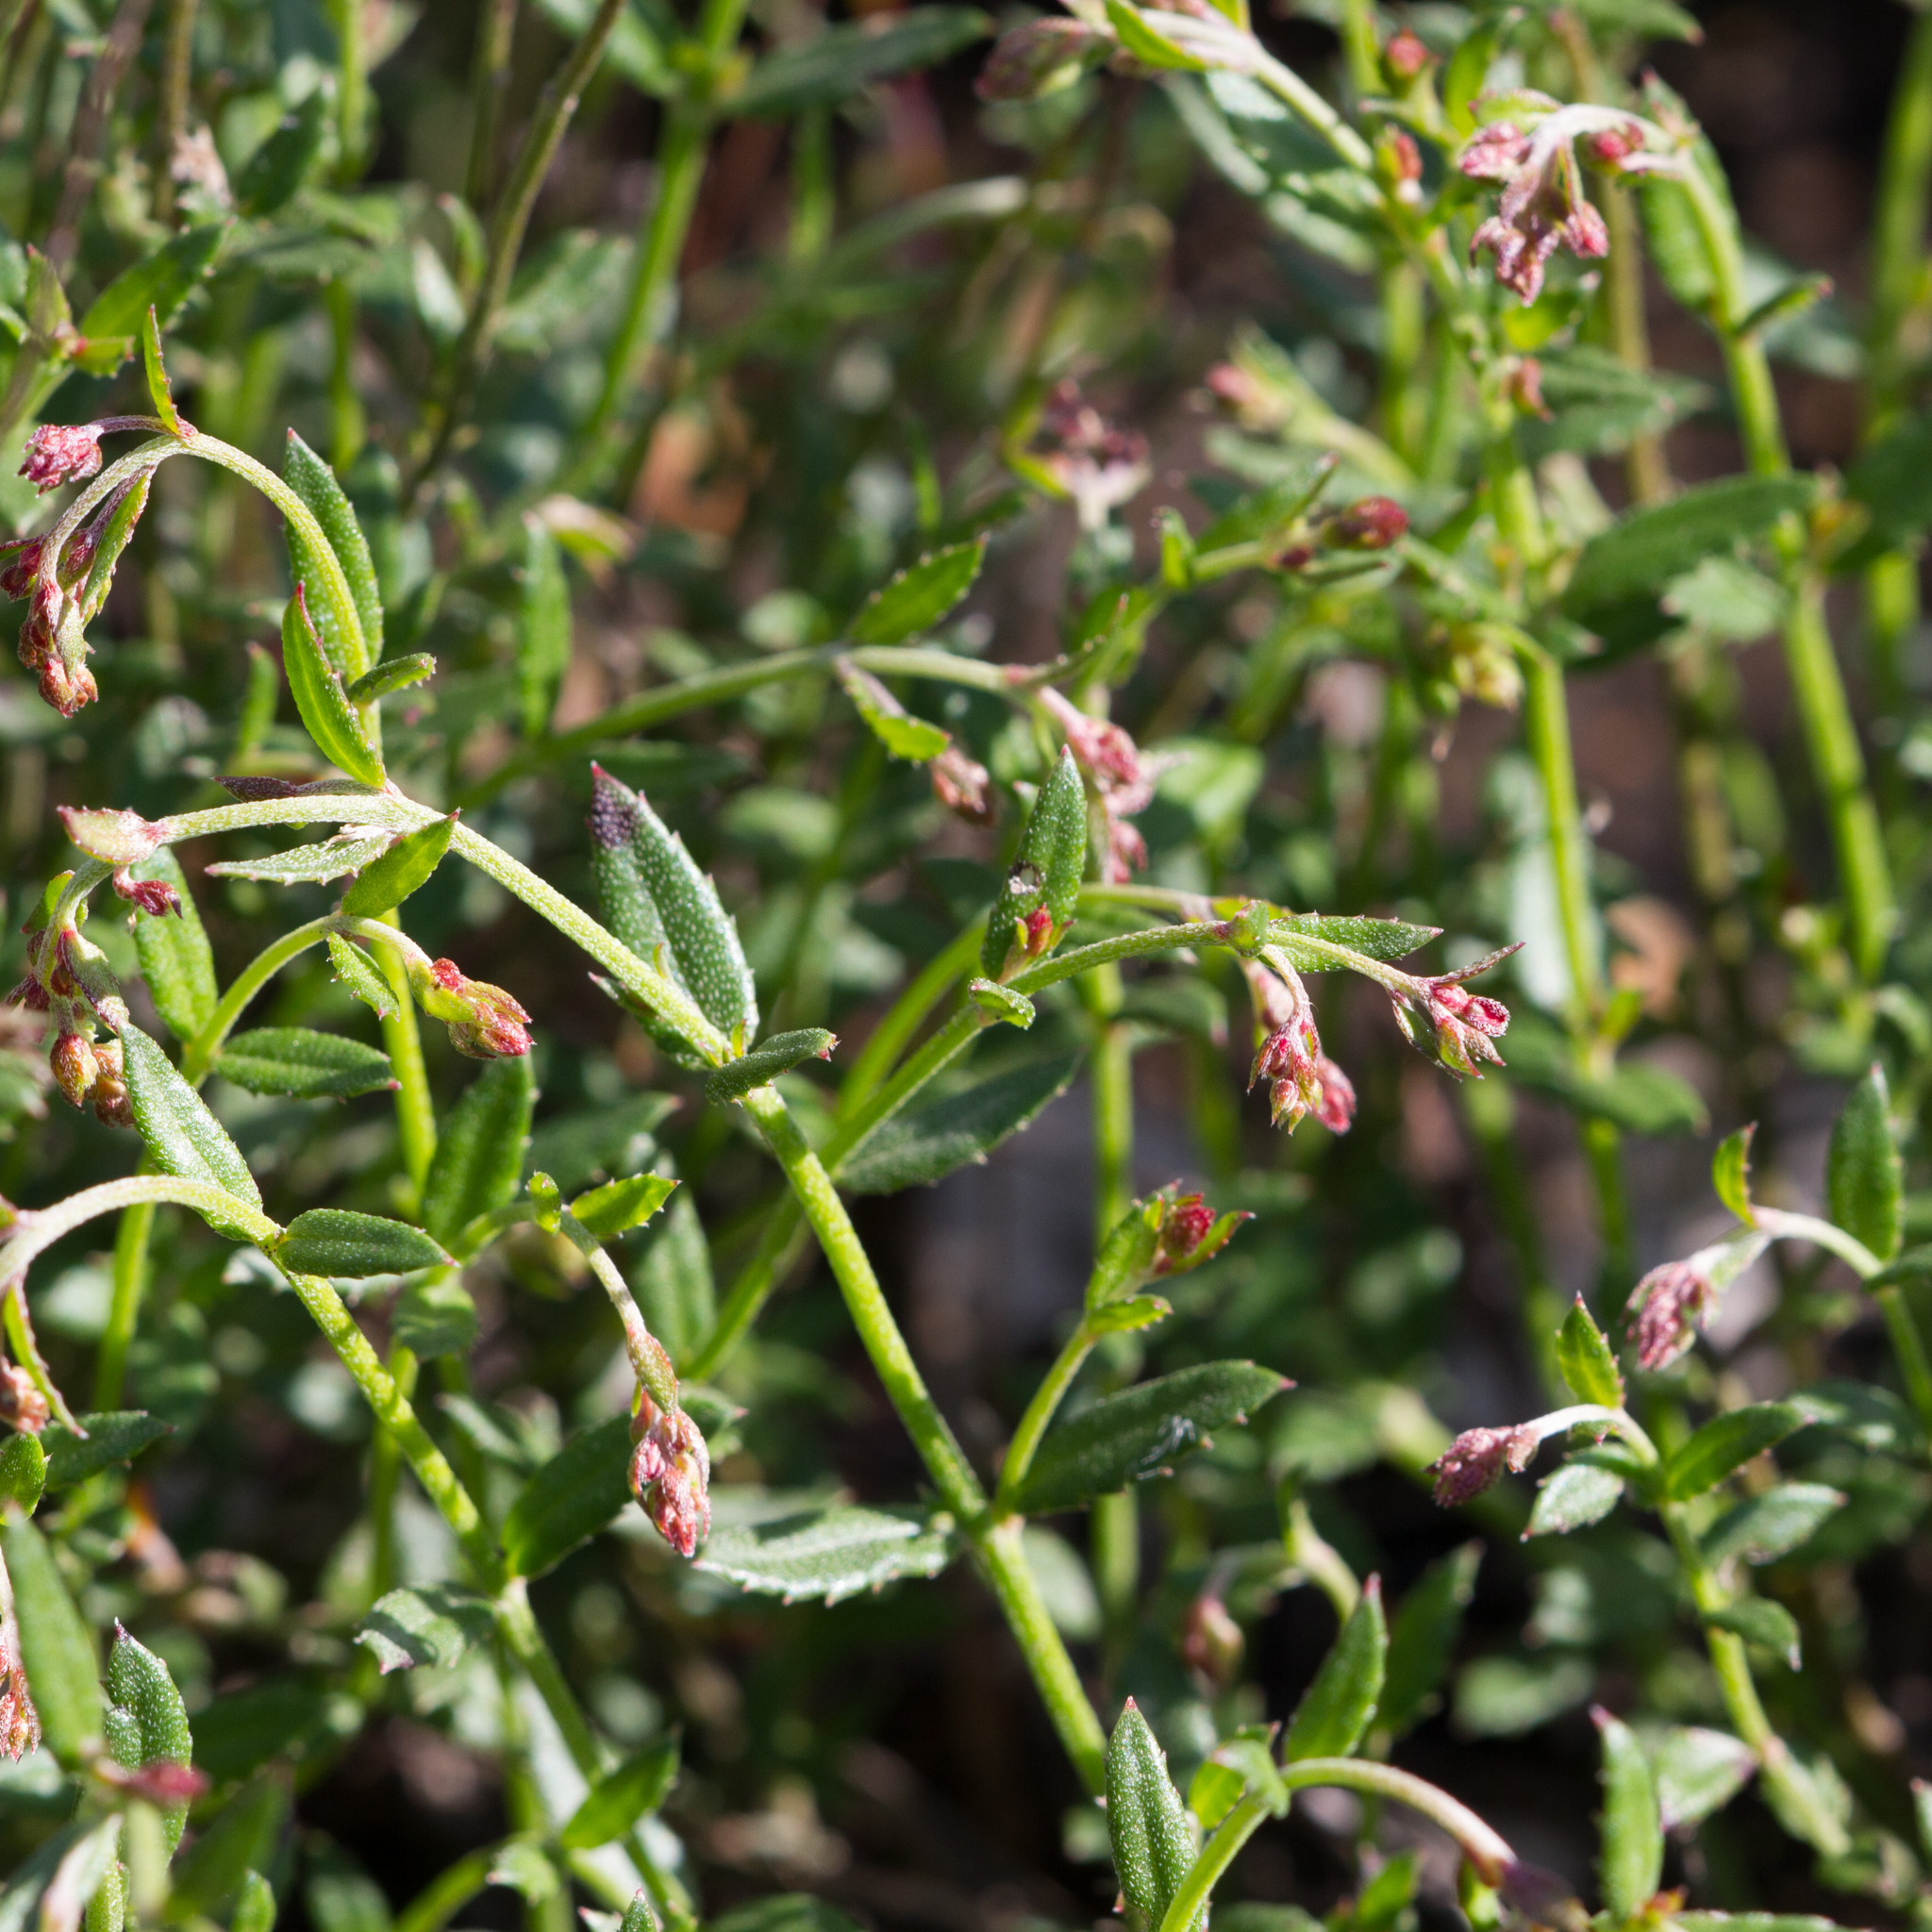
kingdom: Plantae
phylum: Tracheophyta
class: Magnoliopsida
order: Saxifragales
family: Haloragaceae
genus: Gonocarpus
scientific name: Gonocarpus tetragynus
